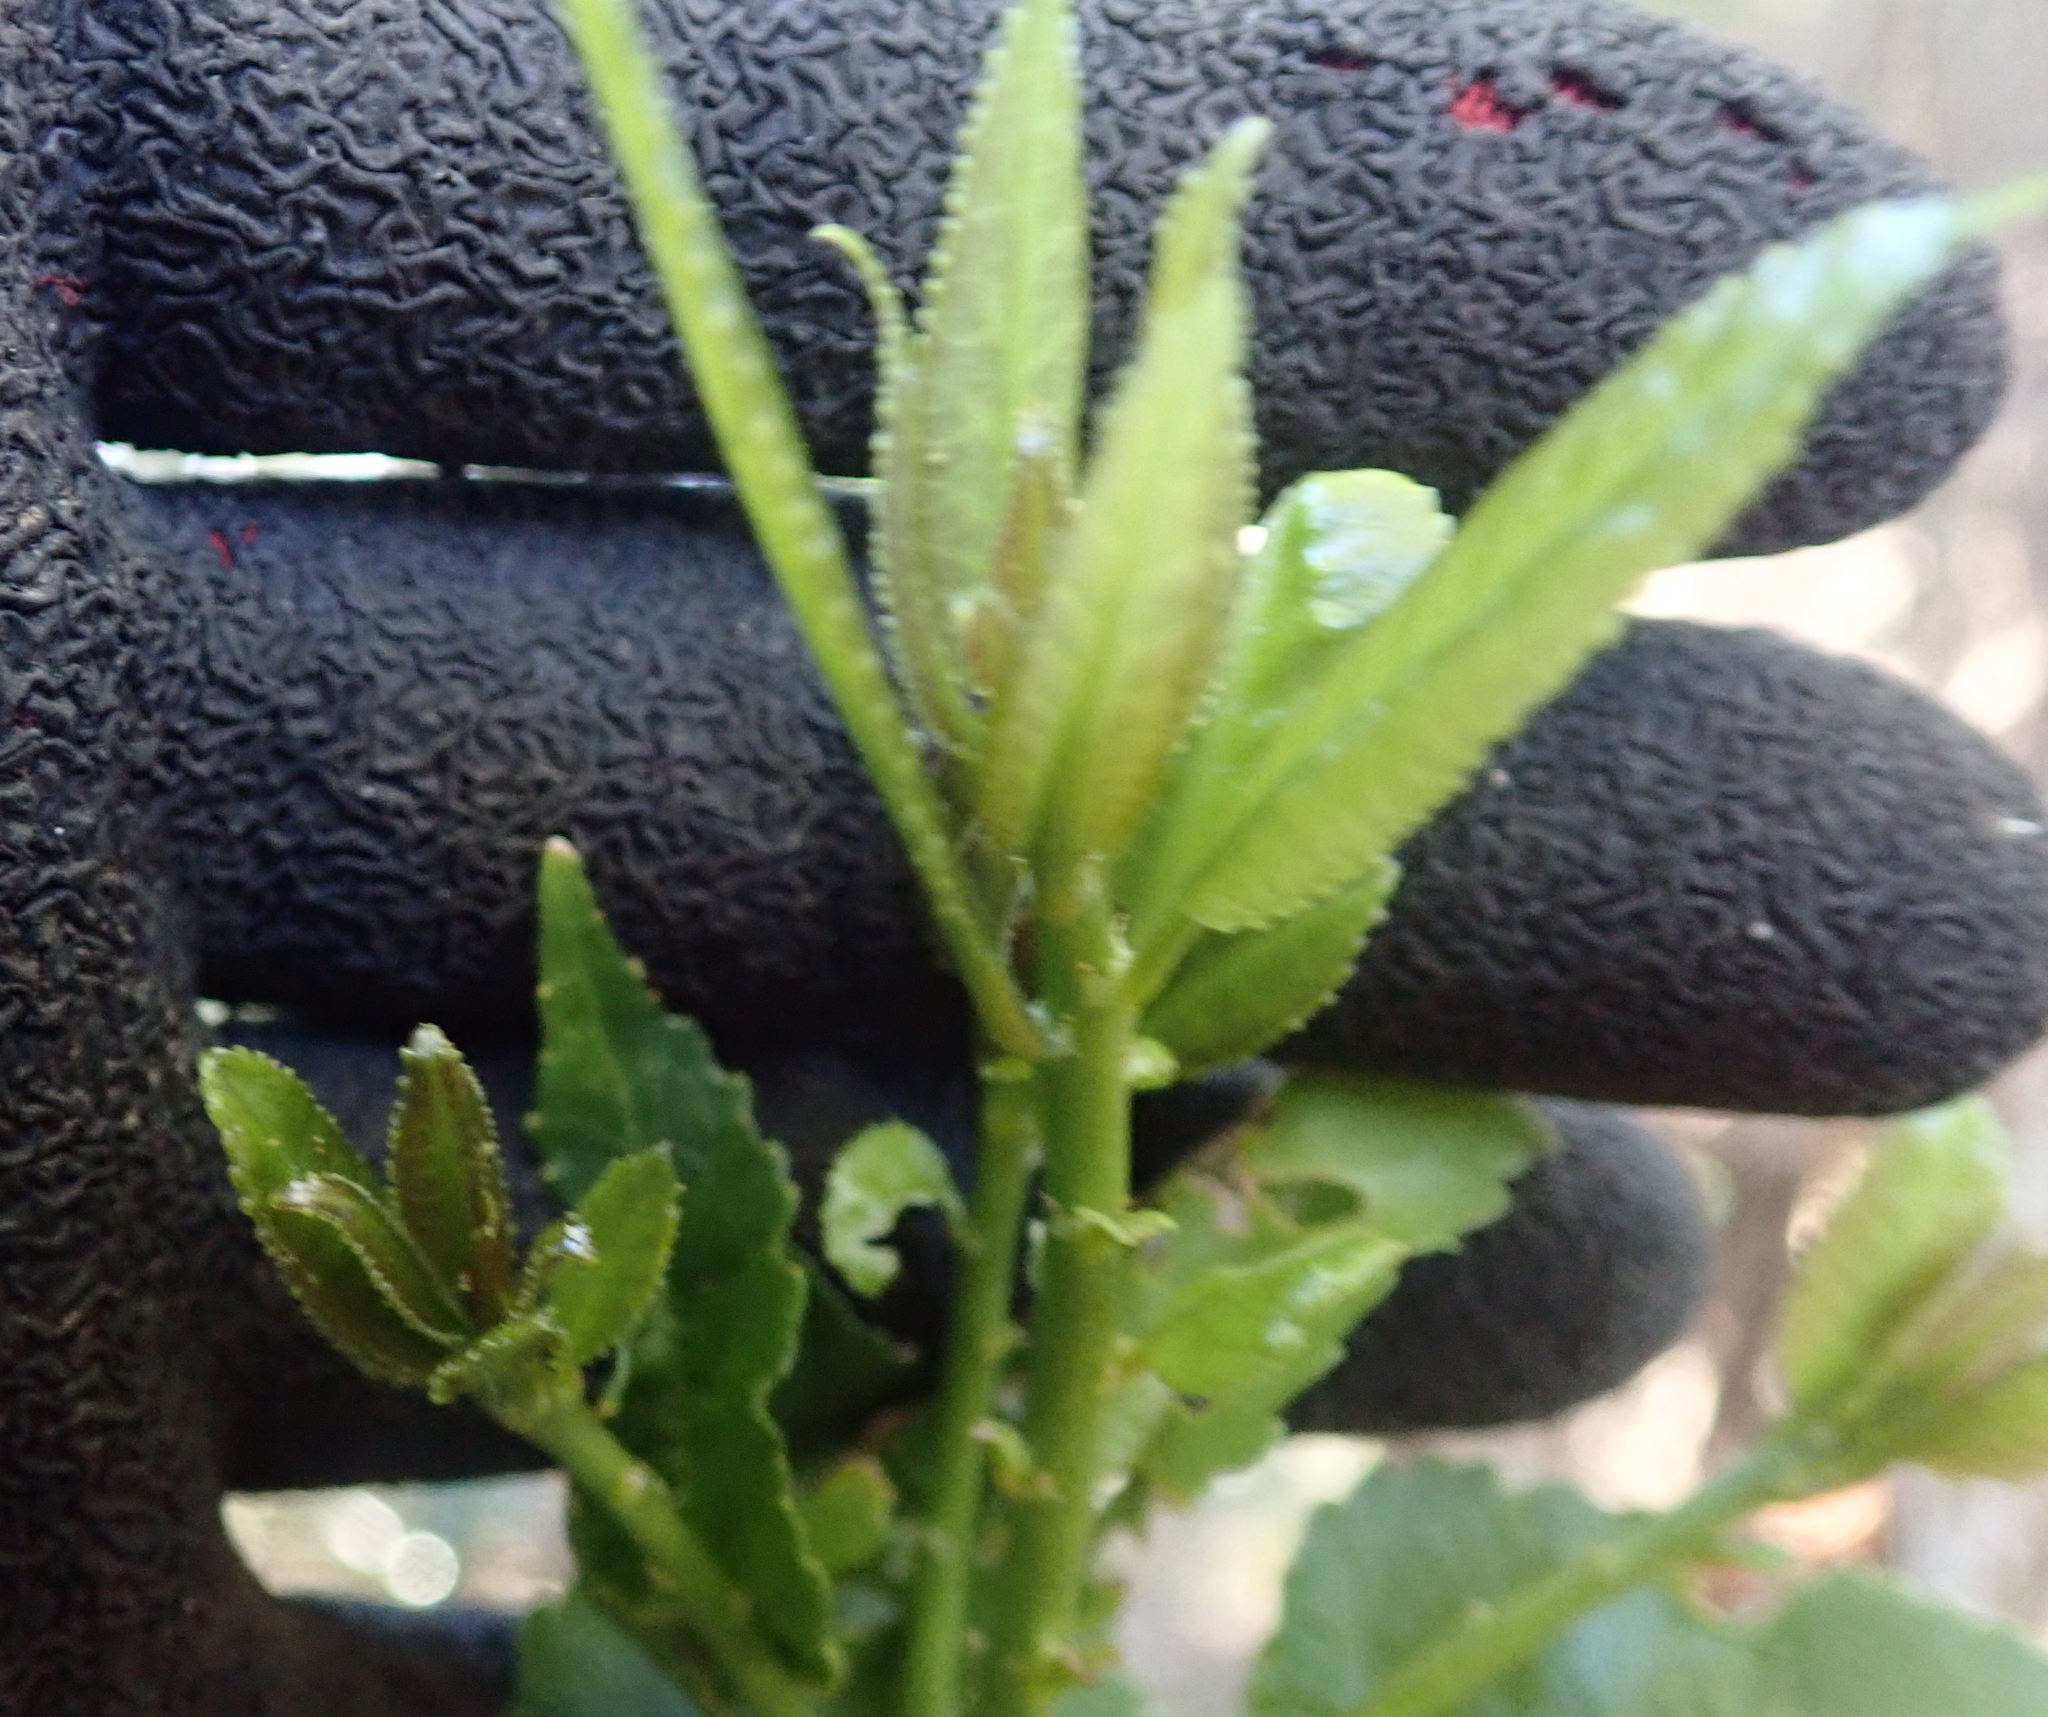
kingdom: Plantae
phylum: Tracheophyta
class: Magnoliopsida
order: Malpighiales
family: Violaceae
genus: Melicytus
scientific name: Melicytus ramiflorus
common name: Mahoe
